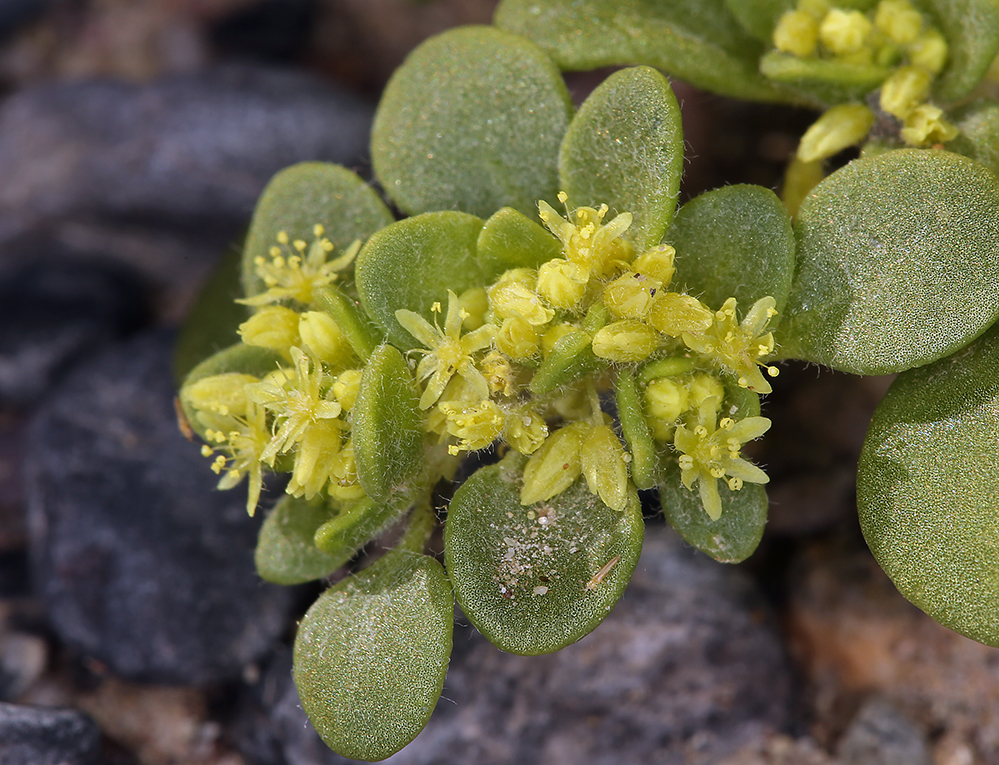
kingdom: Plantae
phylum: Tracheophyta
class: Magnoliopsida
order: Caryophyllales
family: Polygonaceae
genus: Gilmania
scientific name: Gilmania luteola
